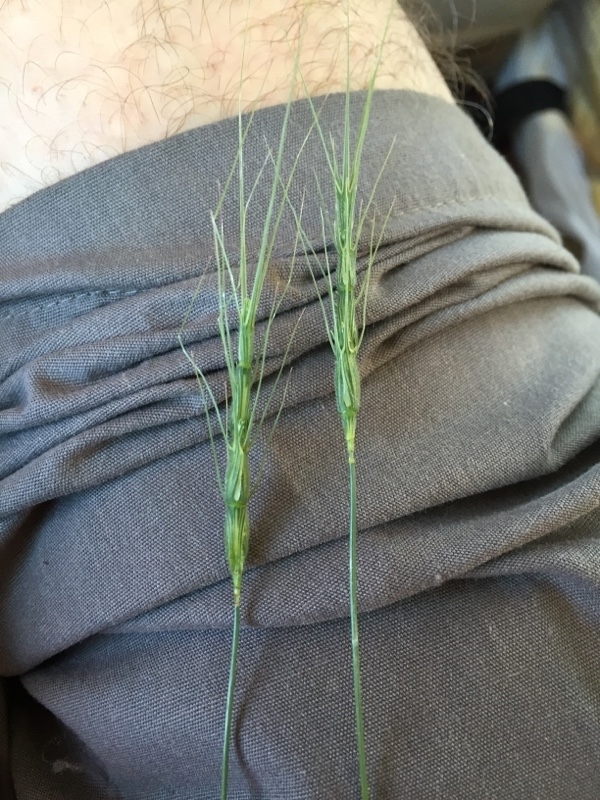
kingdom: Plantae
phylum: Tracheophyta
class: Liliopsida
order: Poales
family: Poaceae
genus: Aegilops
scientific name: Aegilops triuncialis
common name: Barb goat grass
